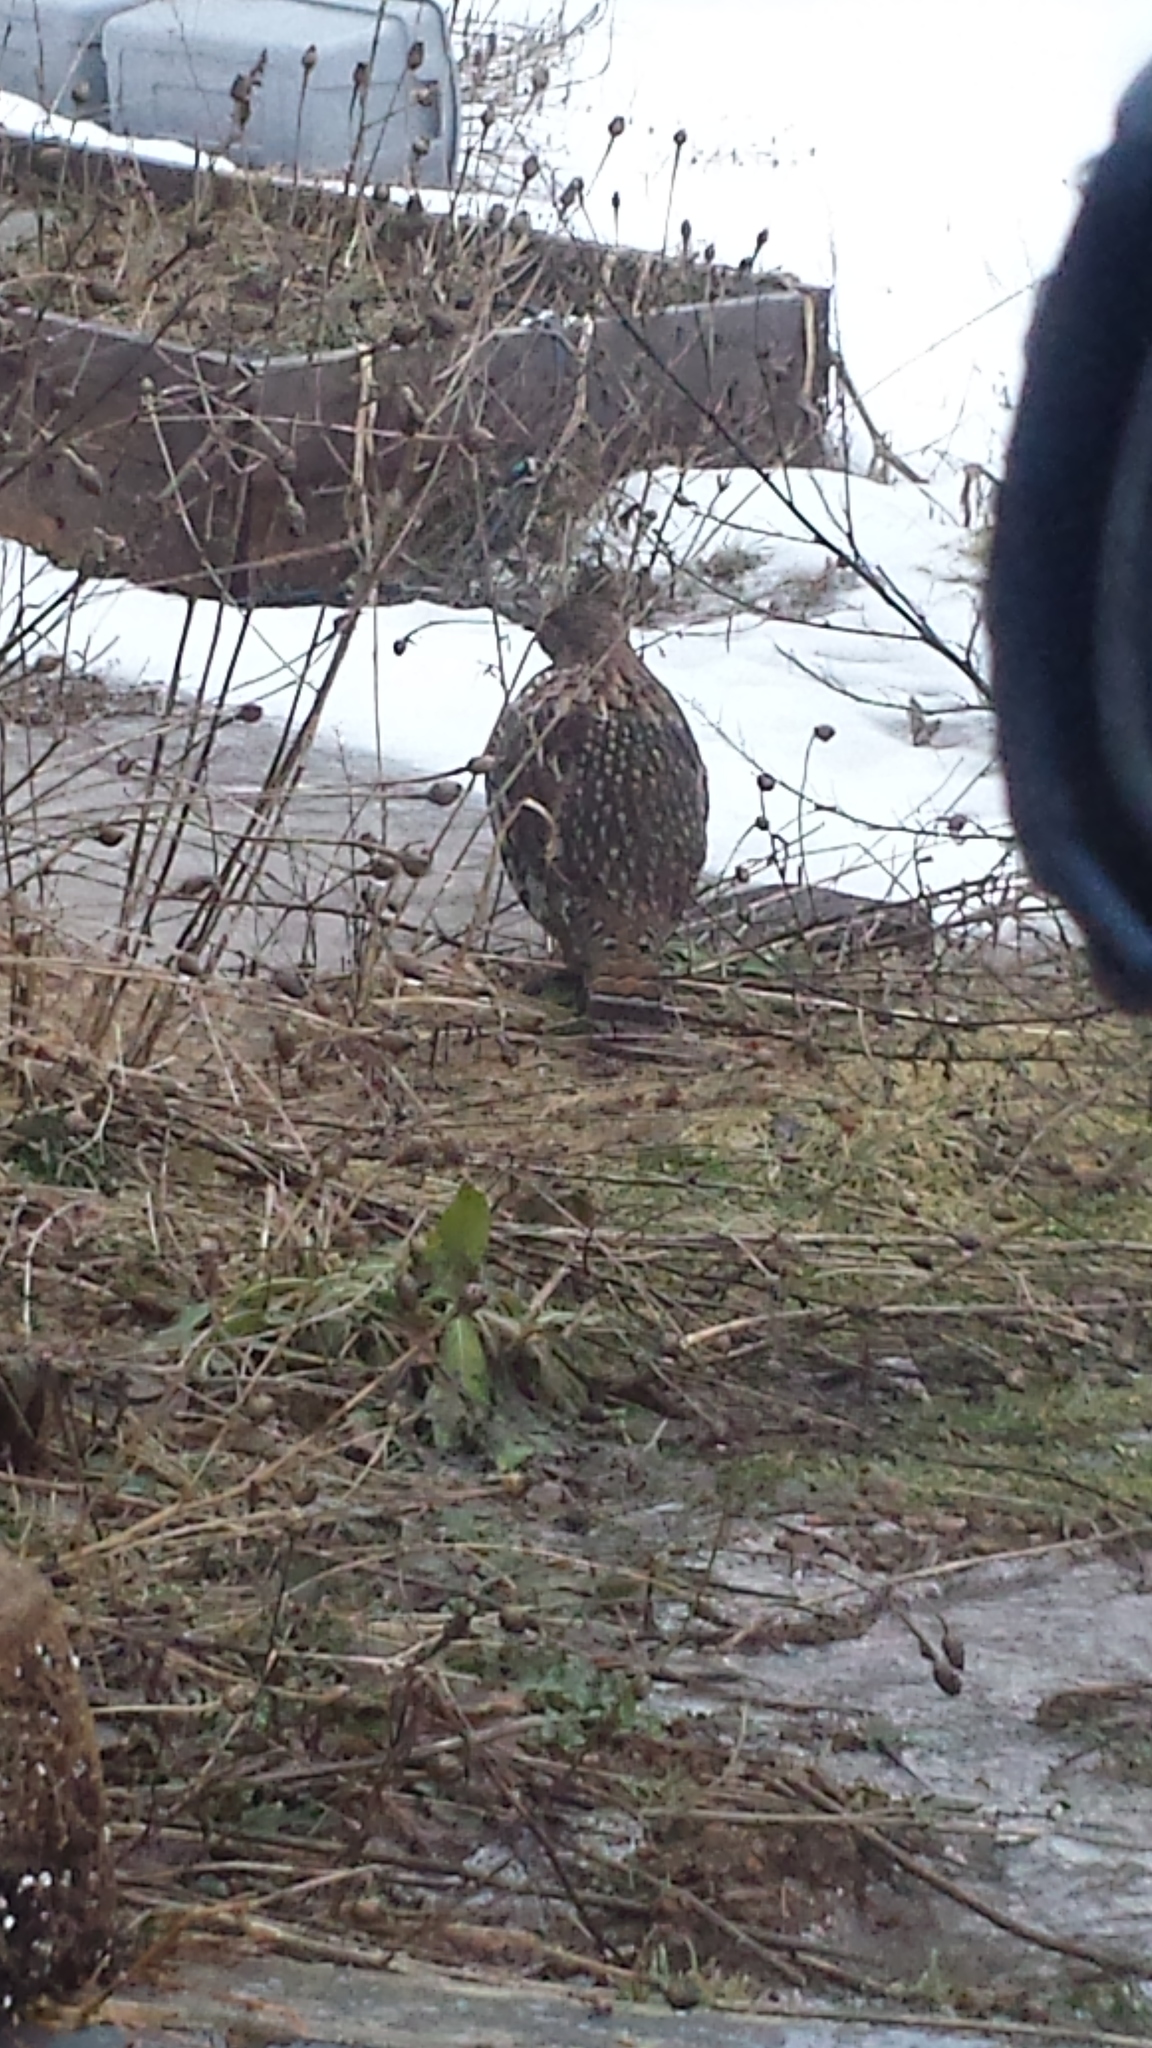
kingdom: Animalia
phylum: Chordata
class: Aves
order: Galliformes
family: Phasianidae
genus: Bonasa
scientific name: Bonasa umbellus
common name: Ruffed grouse
